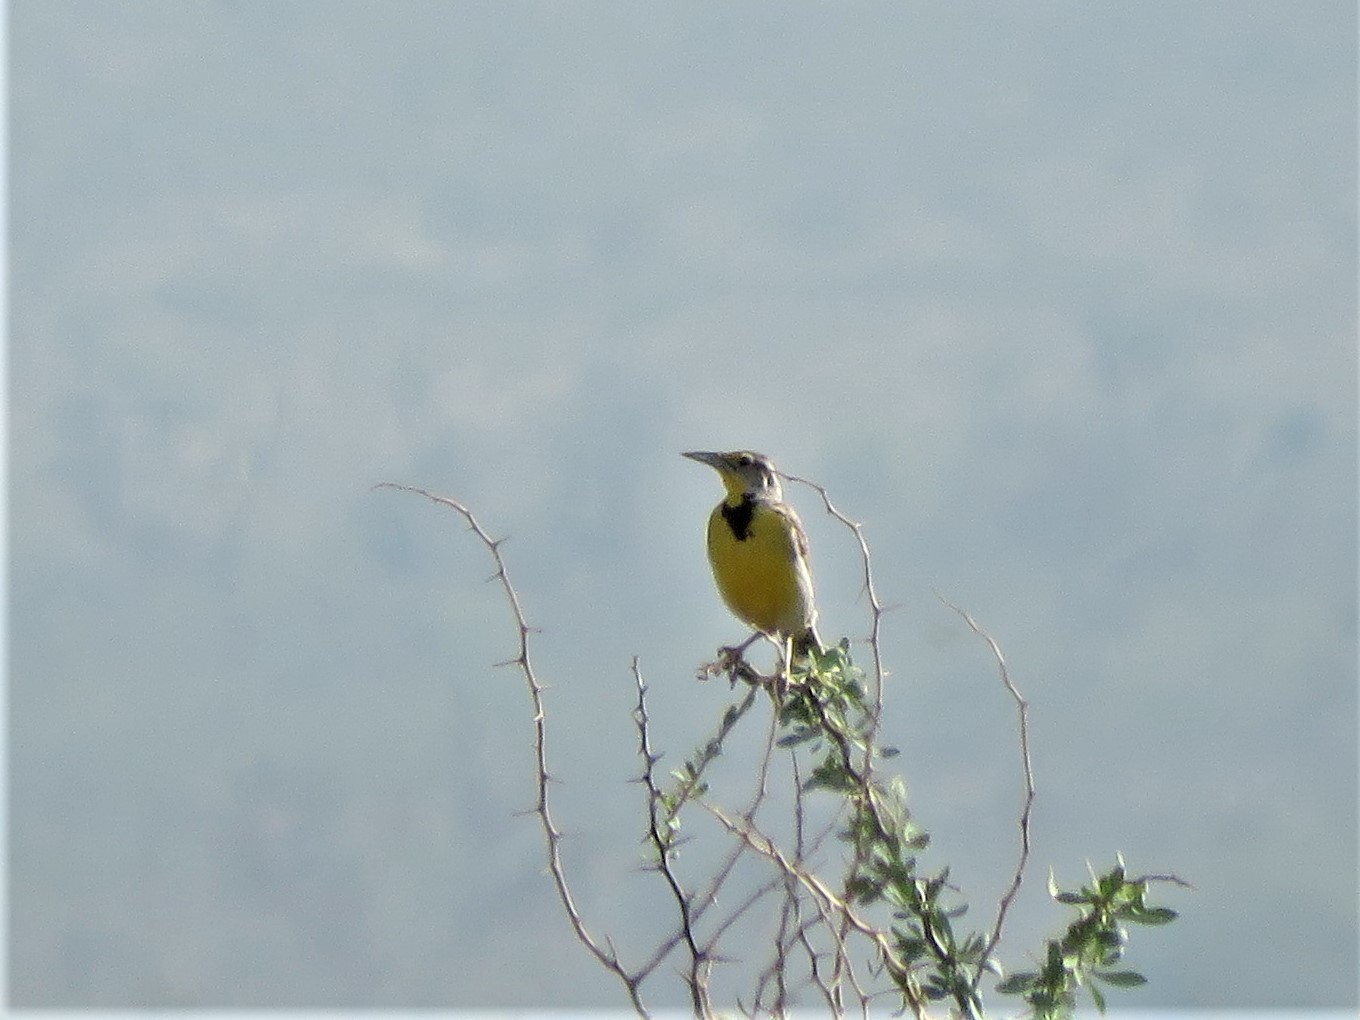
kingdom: Animalia
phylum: Chordata
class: Aves
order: Passeriformes
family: Icteridae
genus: Sturnella
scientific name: Sturnella neglecta
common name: Western meadowlark
